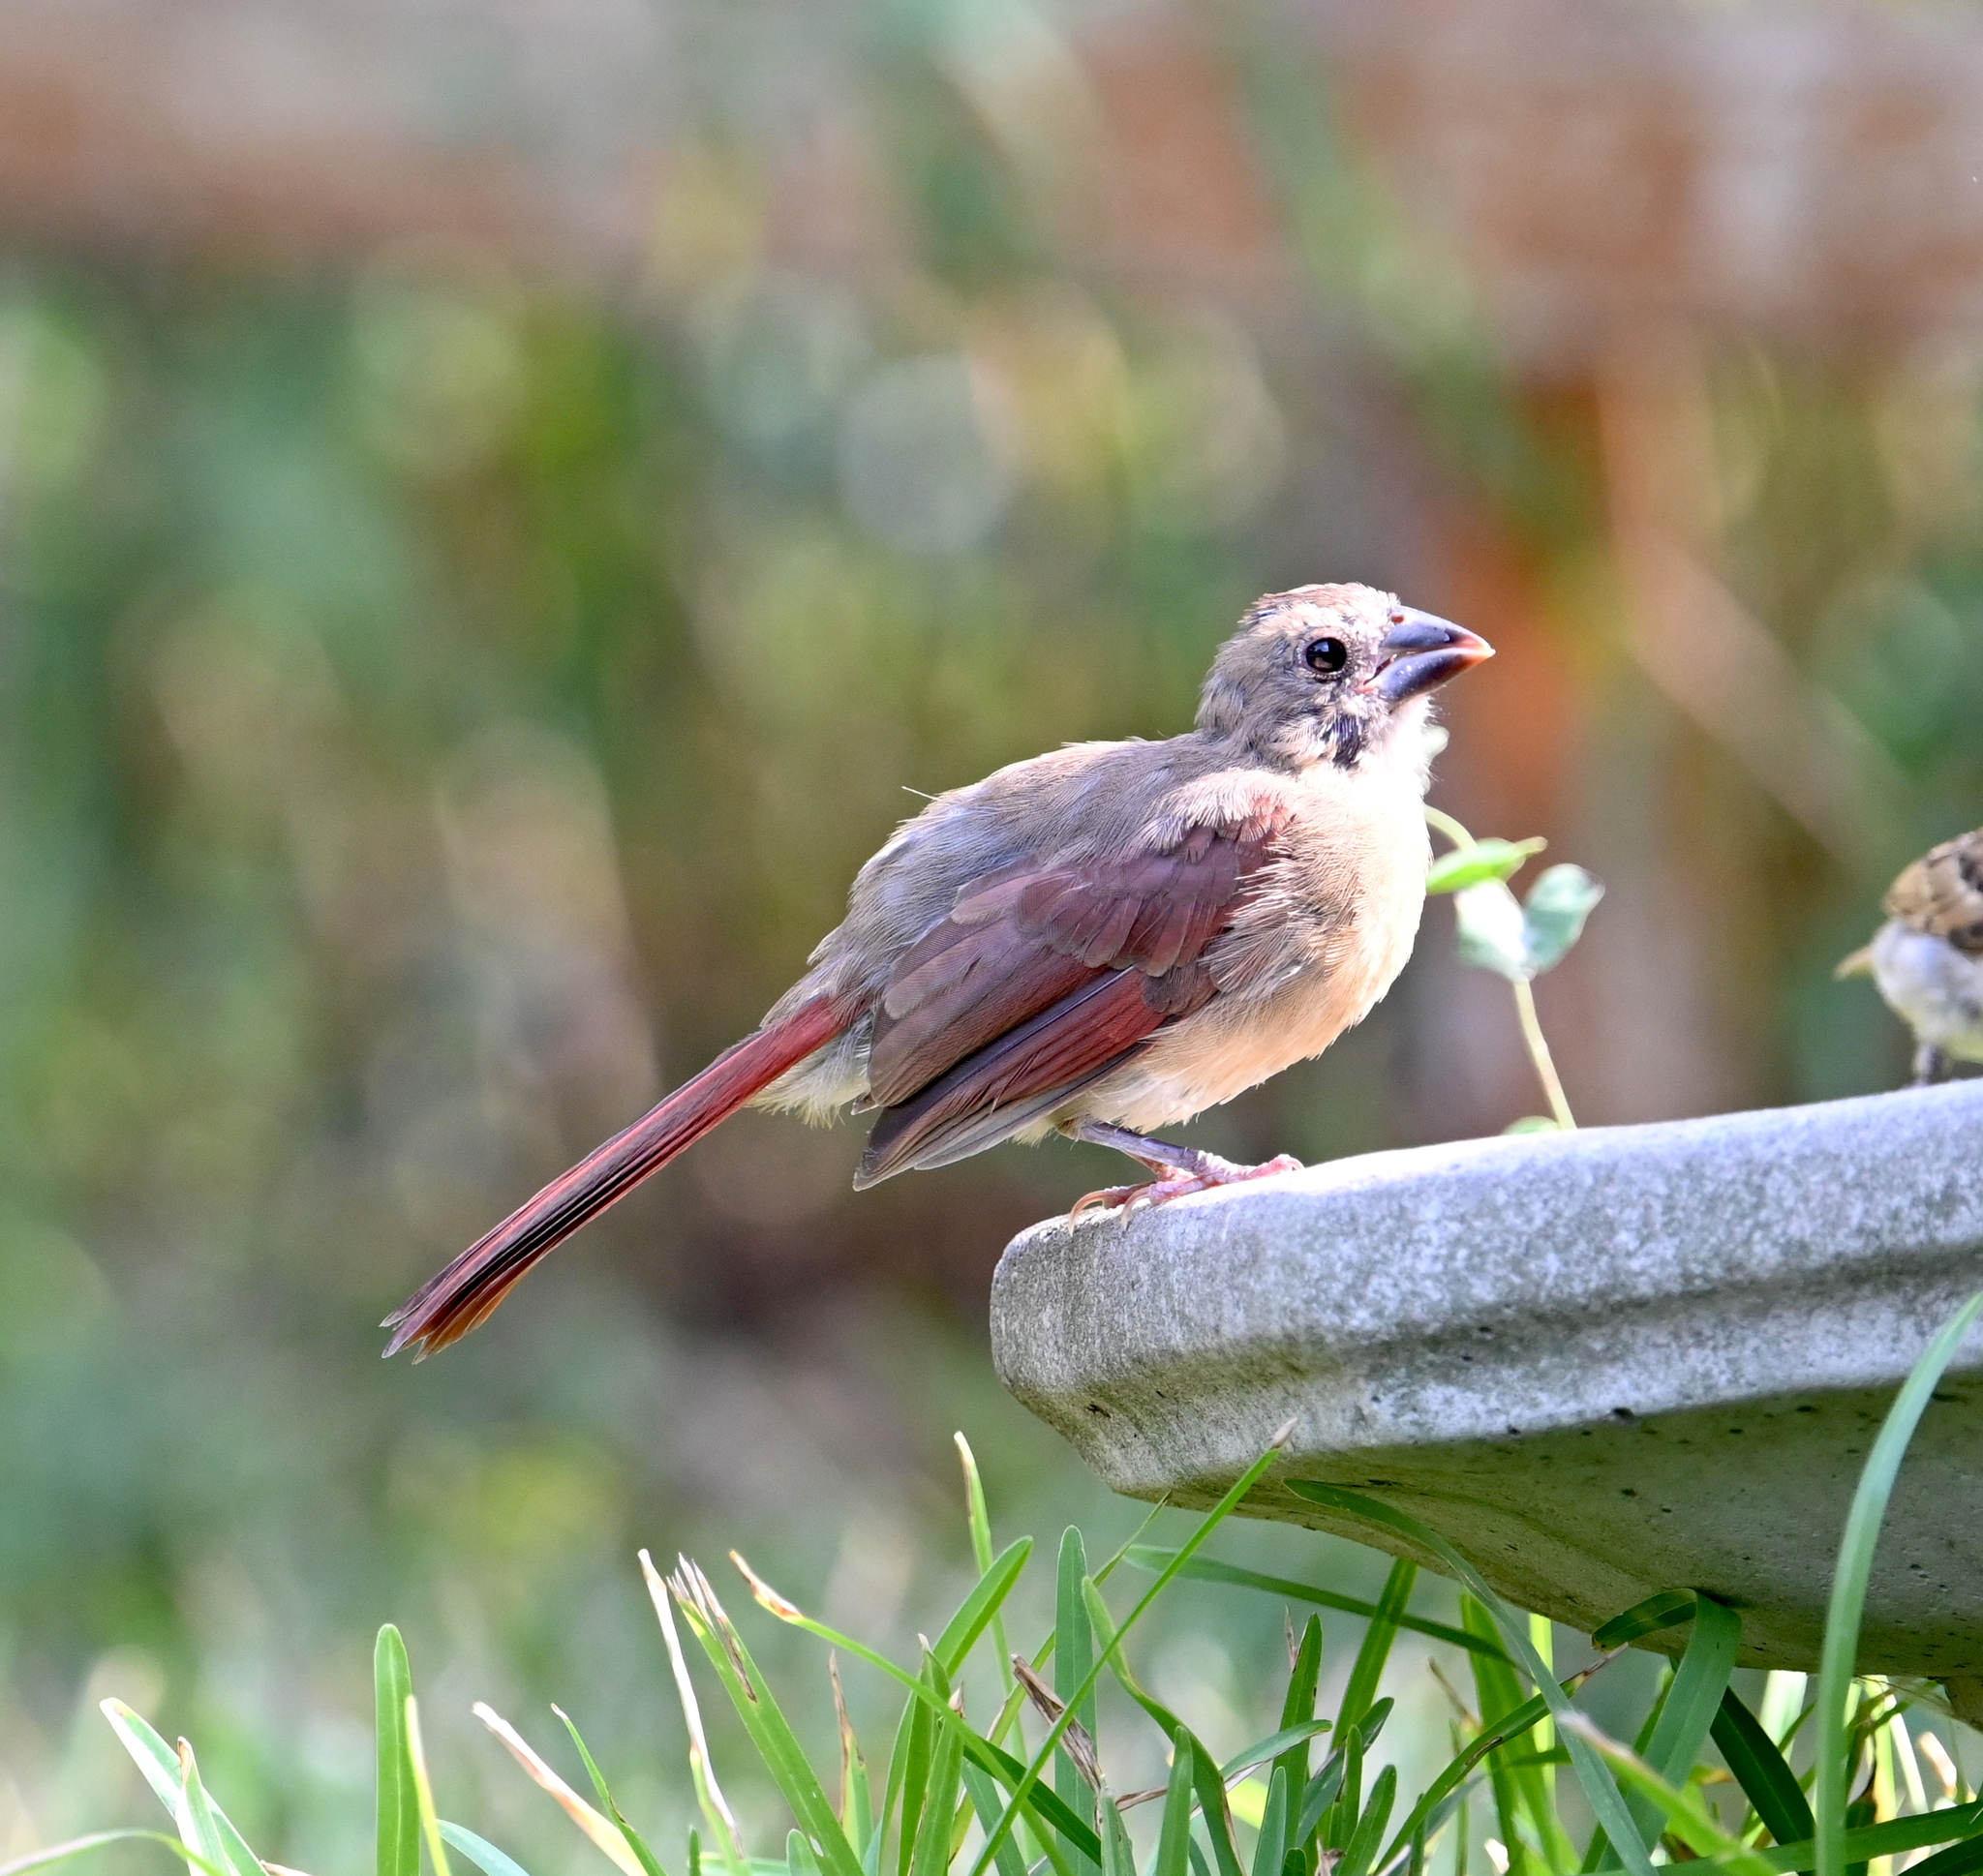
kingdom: Animalia
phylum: Chordata
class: Aves
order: Passeriformes
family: Cardinalidae
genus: Cardinalis
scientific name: Cardinalis cardinalis
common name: Northern cardinal
